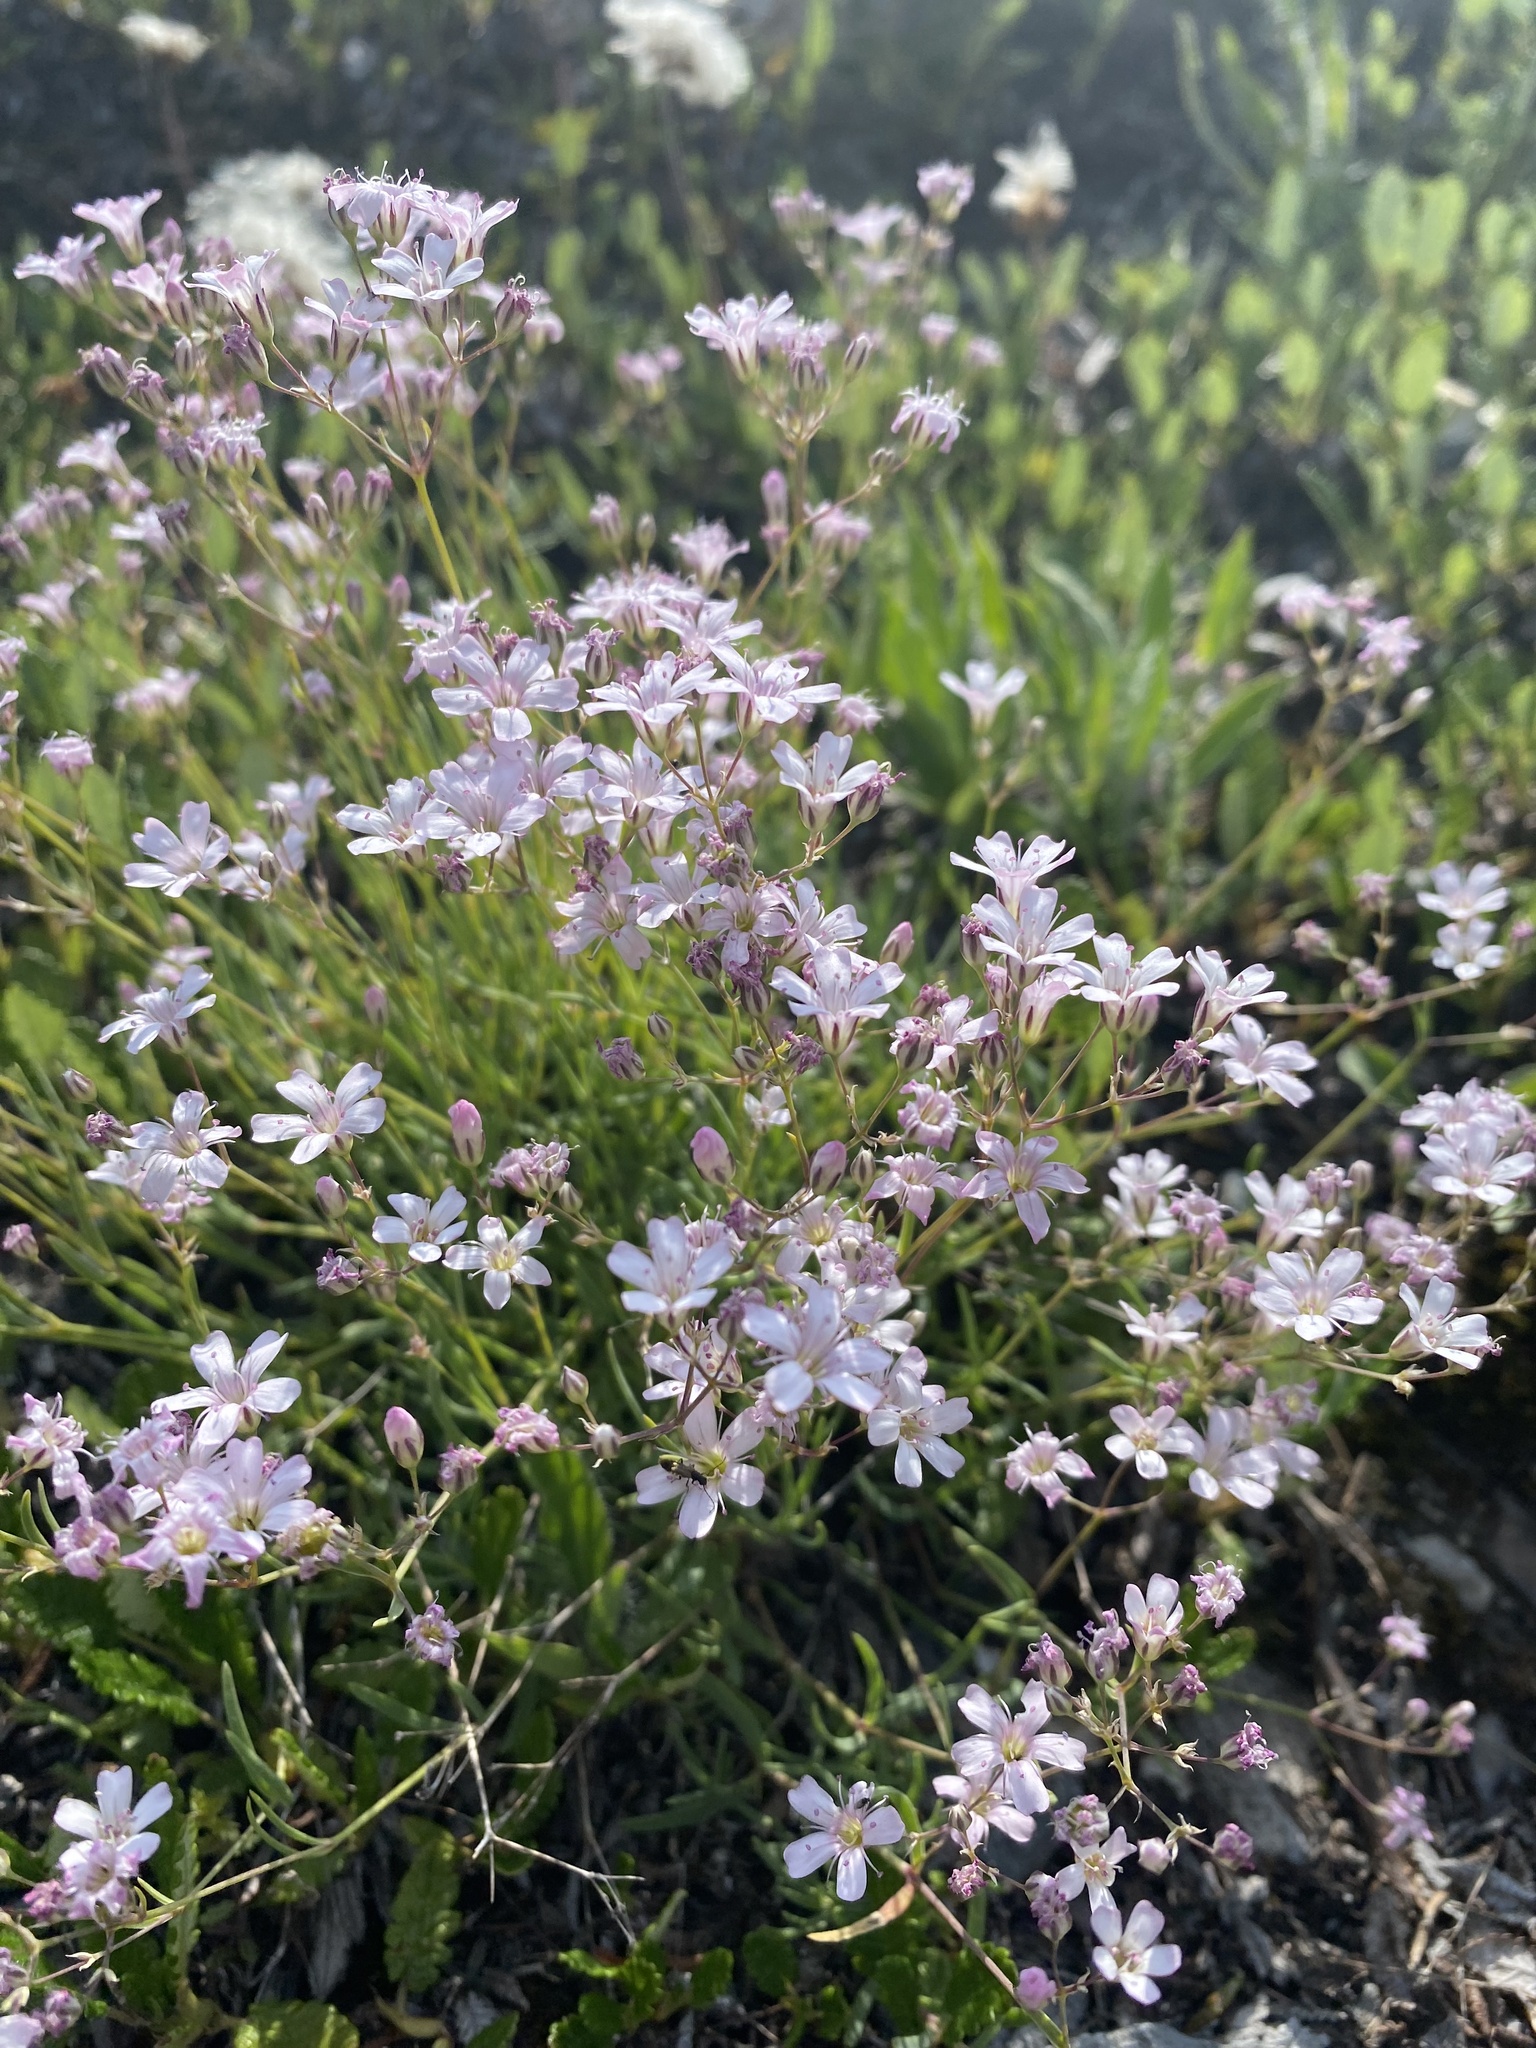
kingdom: Plantae
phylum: Tracheophyta
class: Magnoliopsida
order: Caryophyllales
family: Caryophyllaceae
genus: Gypsophila
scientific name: Gypsophila repens
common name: Creeping baby's-breath
